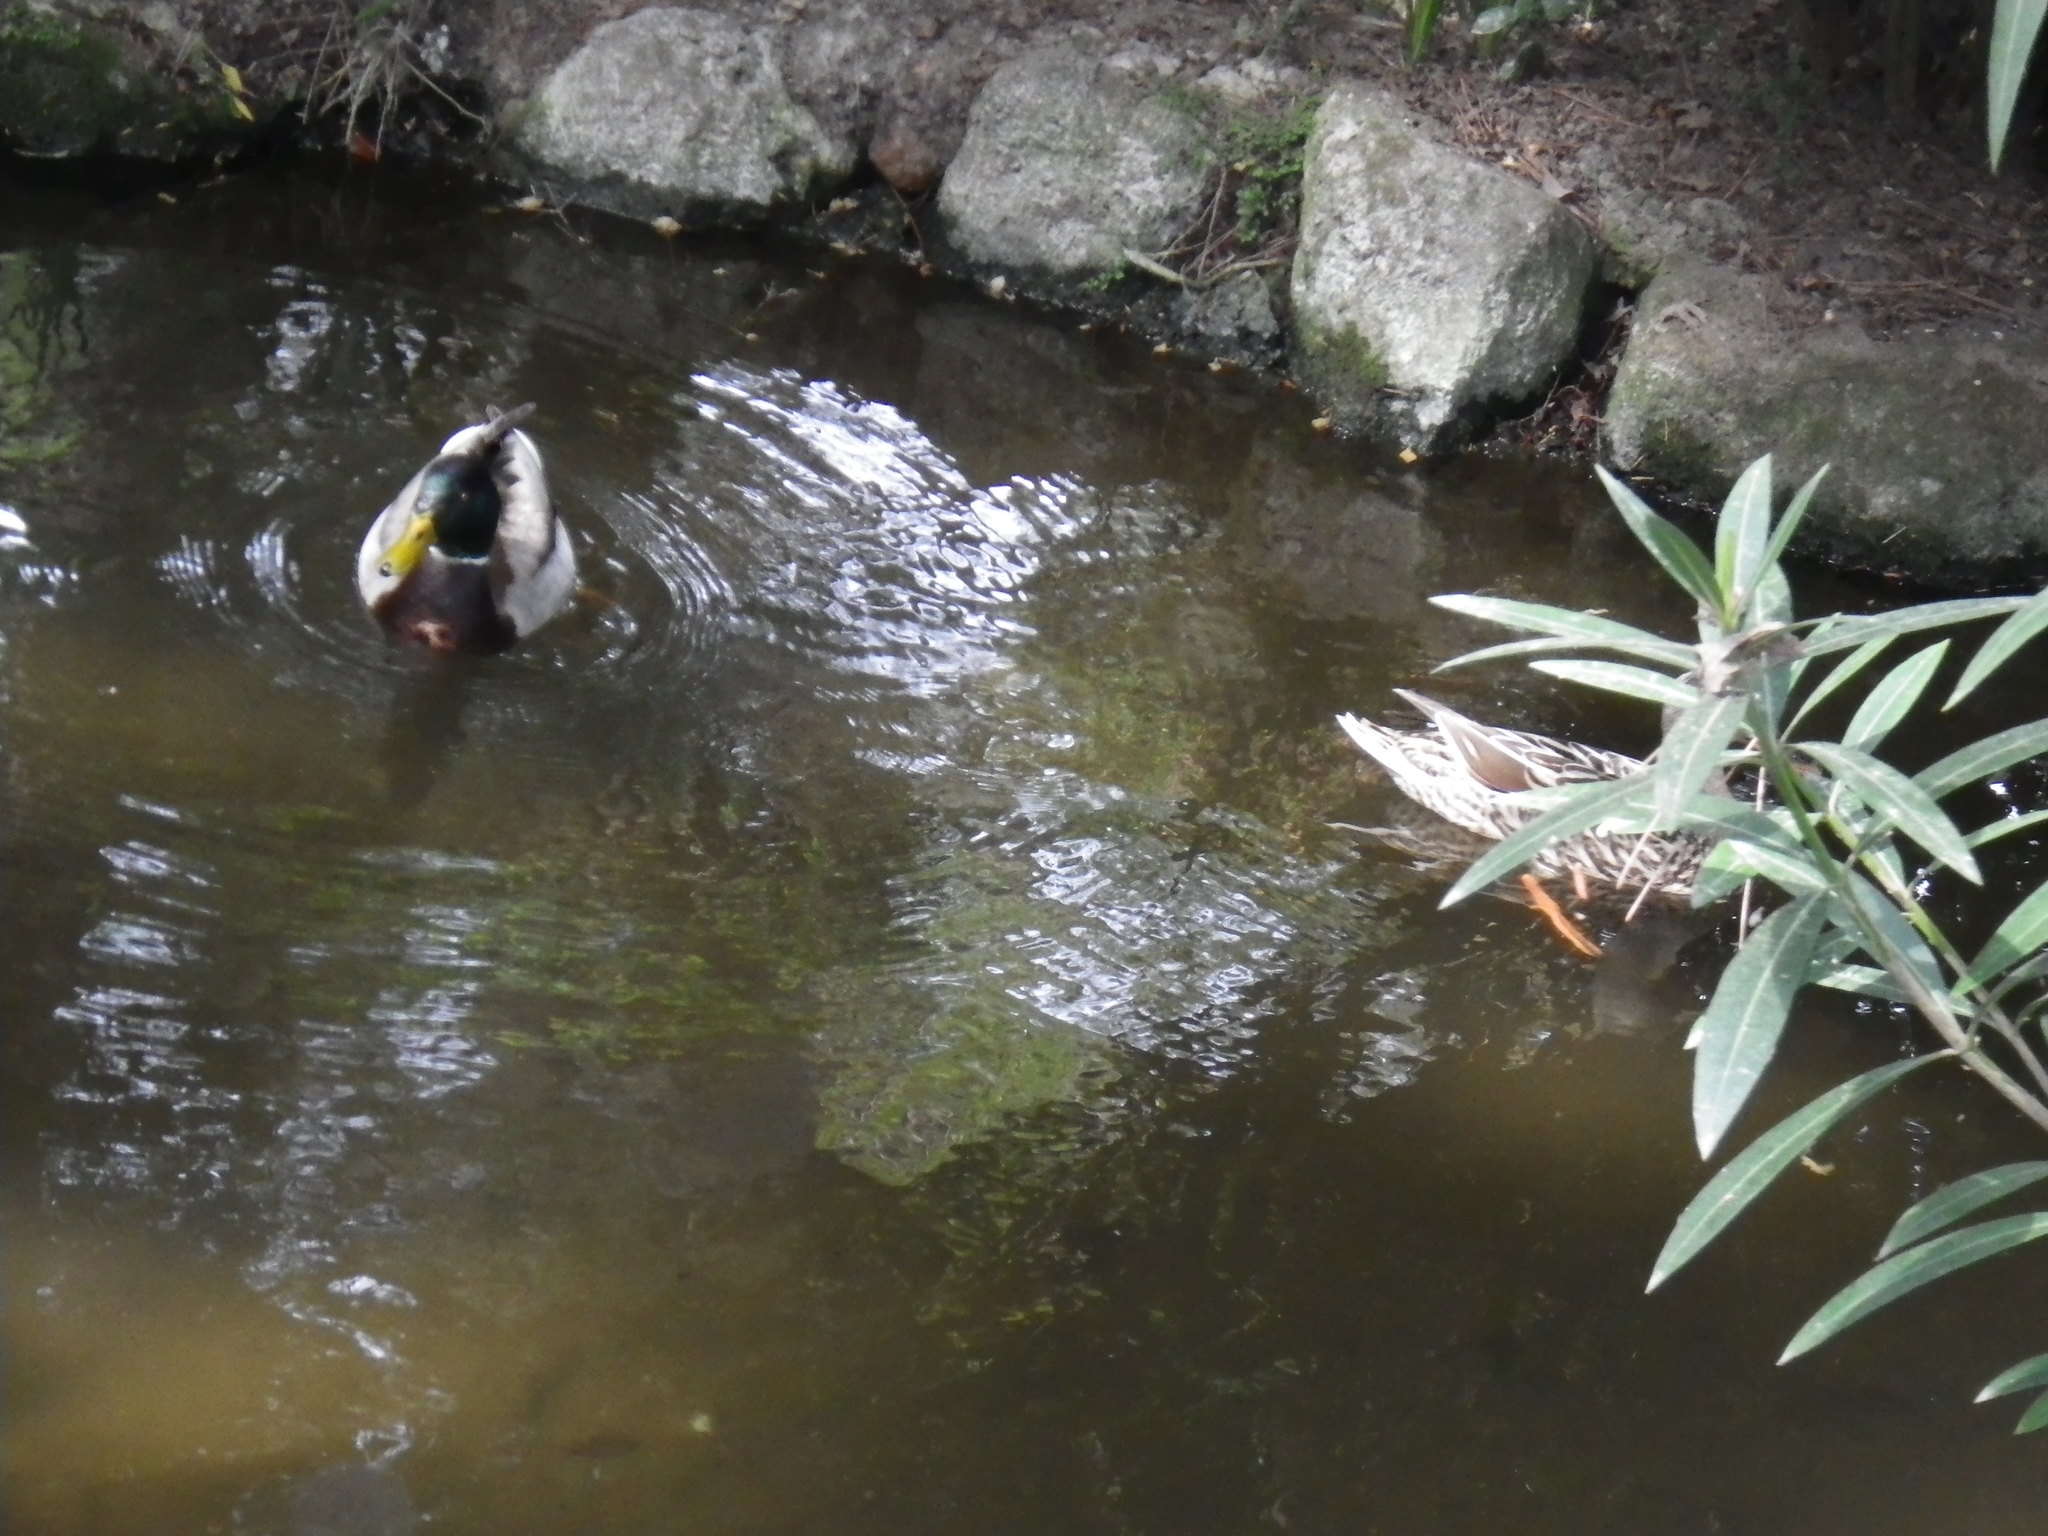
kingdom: Animalia
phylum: Chordata
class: Aves
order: Anseriformes
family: Anatidae
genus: Anas
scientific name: Anas platyrhynchos
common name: Mallard
